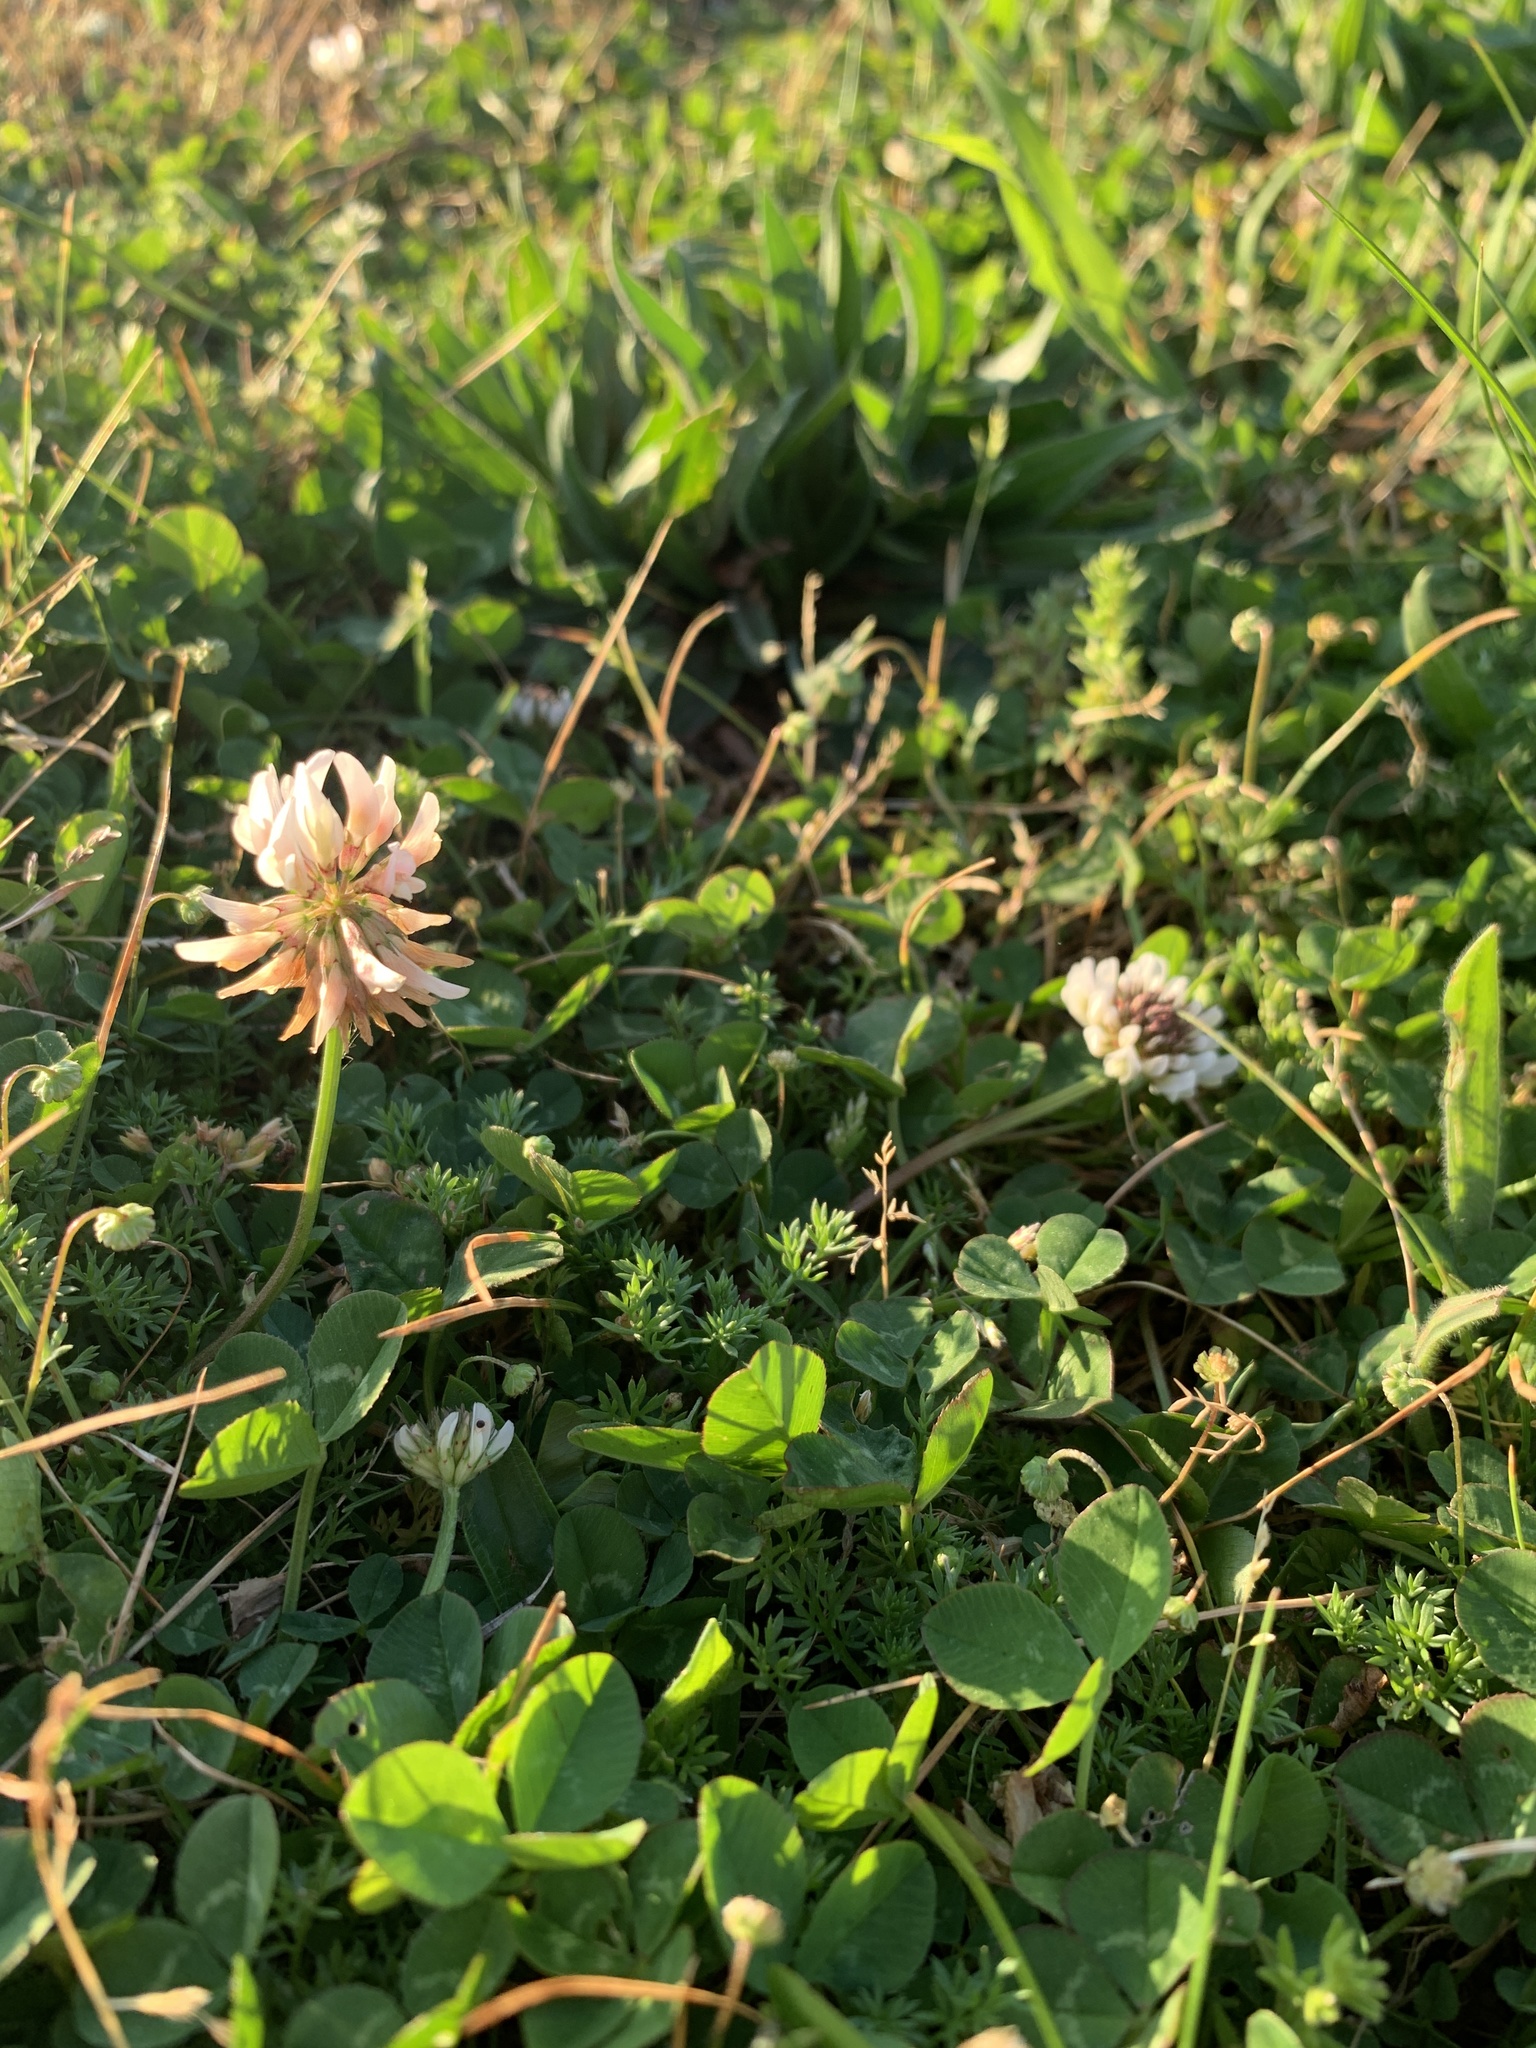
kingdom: Plantae
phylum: Tracheophyta
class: Magnoliopsida
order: Fabales
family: Fabaceae
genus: Trifolium
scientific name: Trifolium repens
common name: White clover
